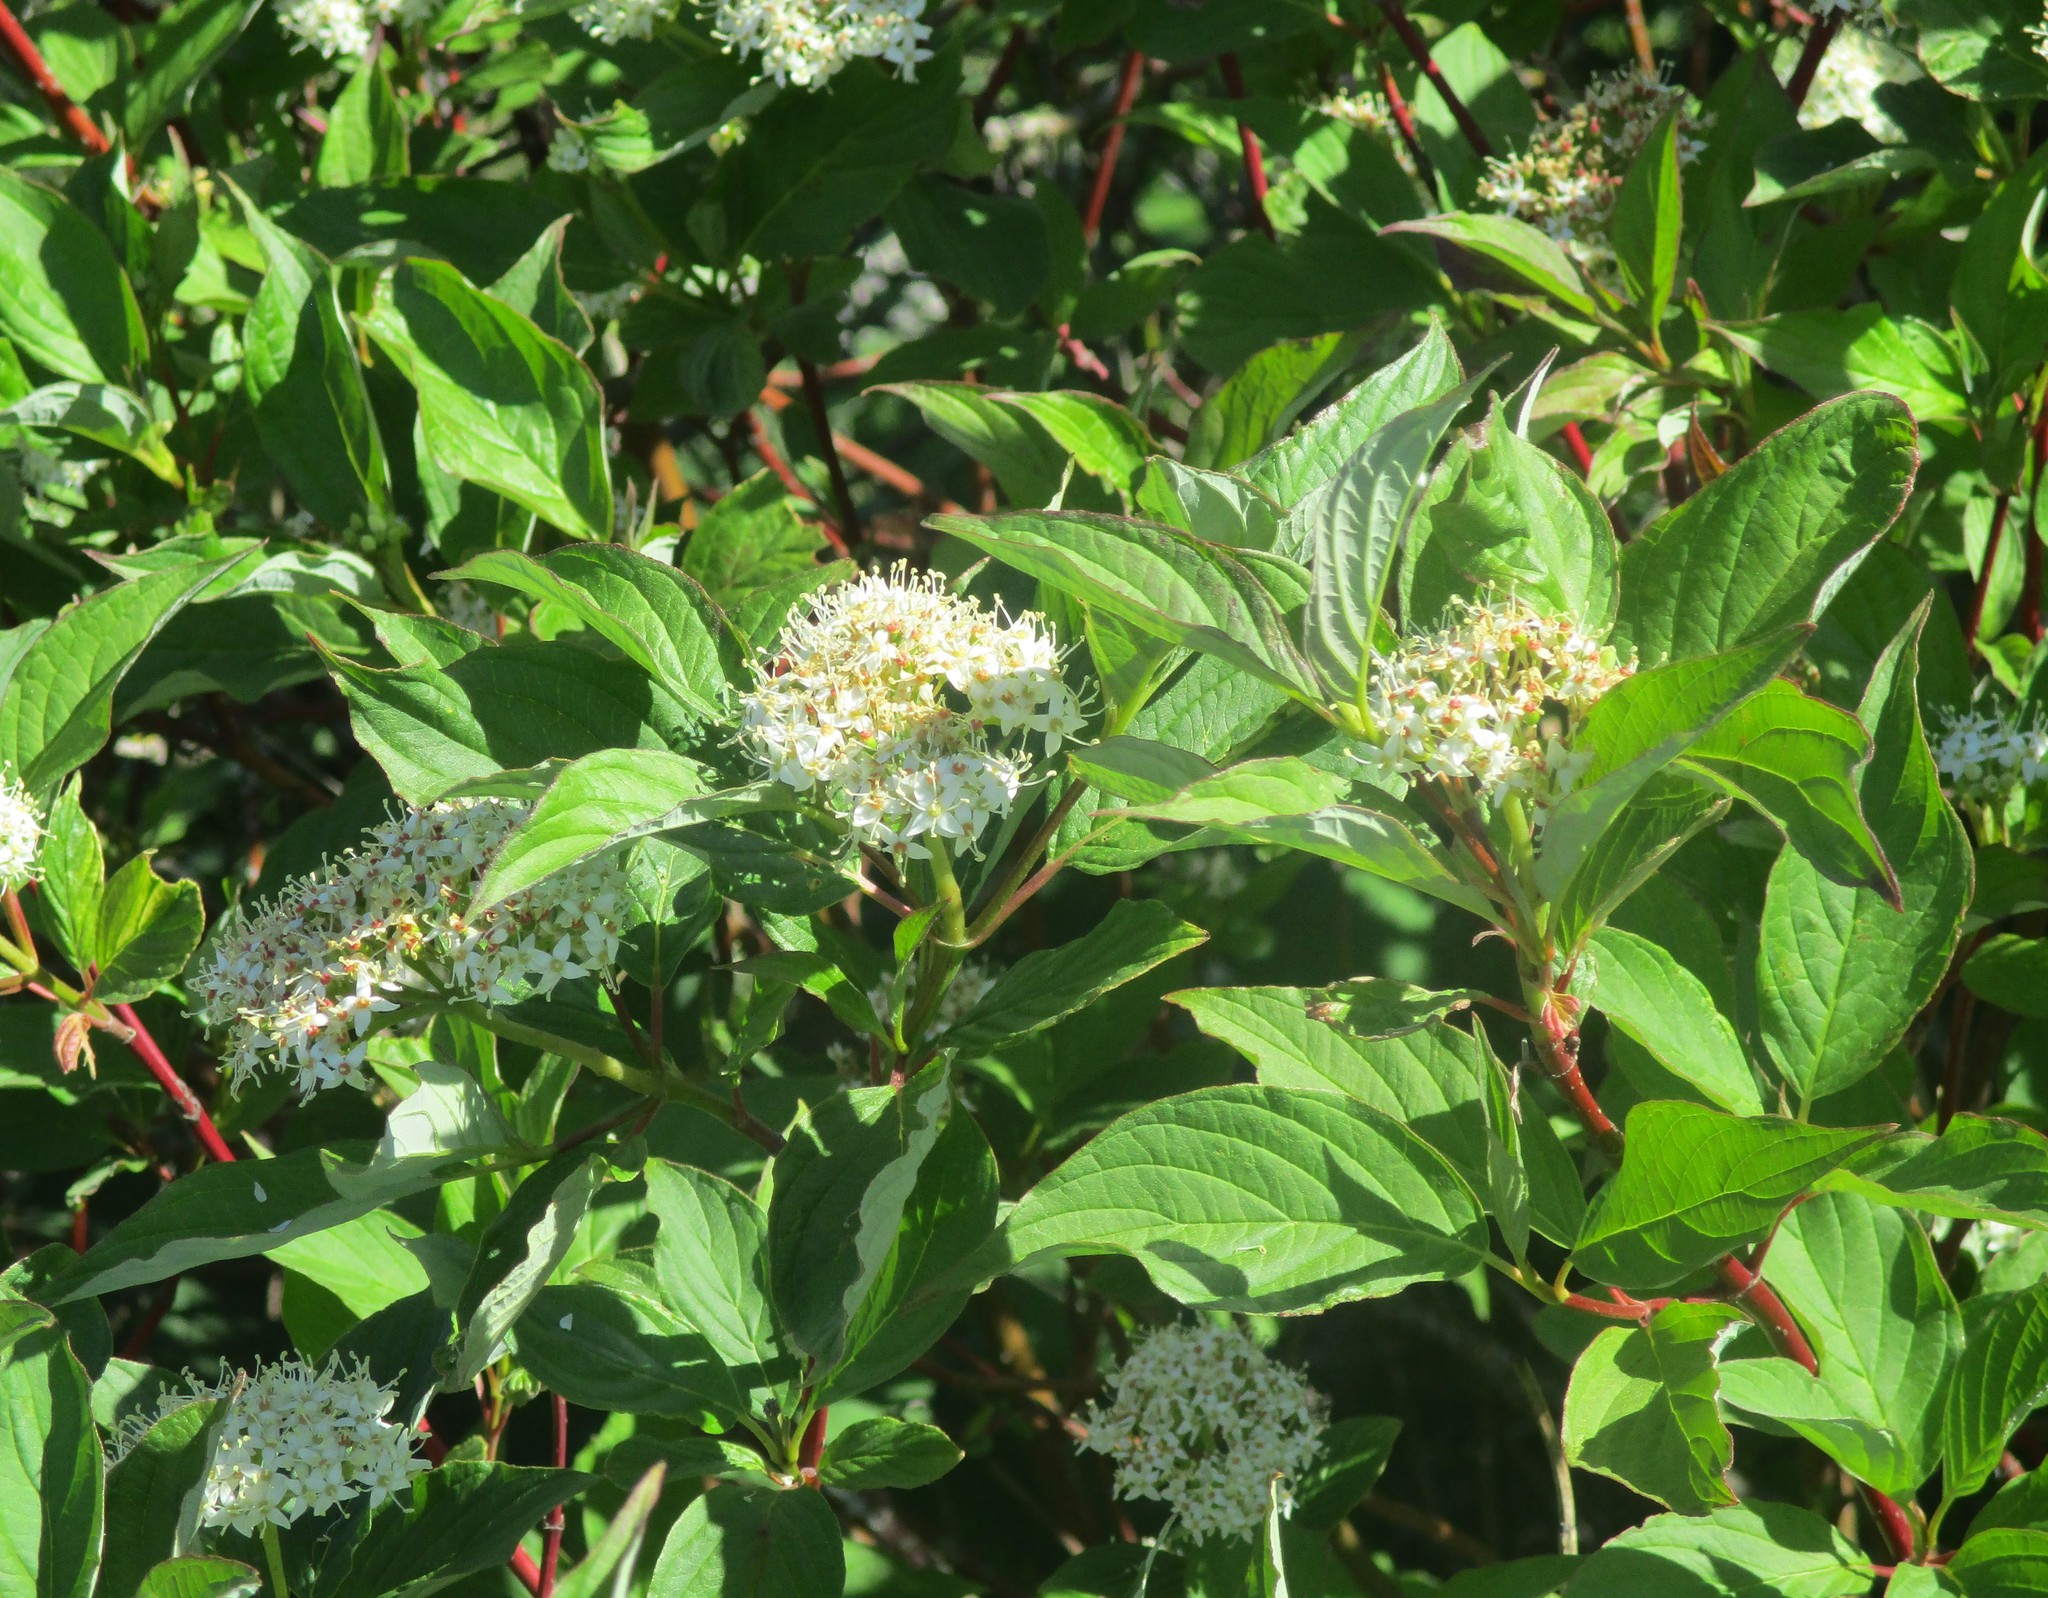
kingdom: Plantae
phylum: Tracheophyta
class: Magnoliopsida
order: Cornales
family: Cornaceae
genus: Cornus
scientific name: Cornus sericea
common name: Red-osier dogwood
